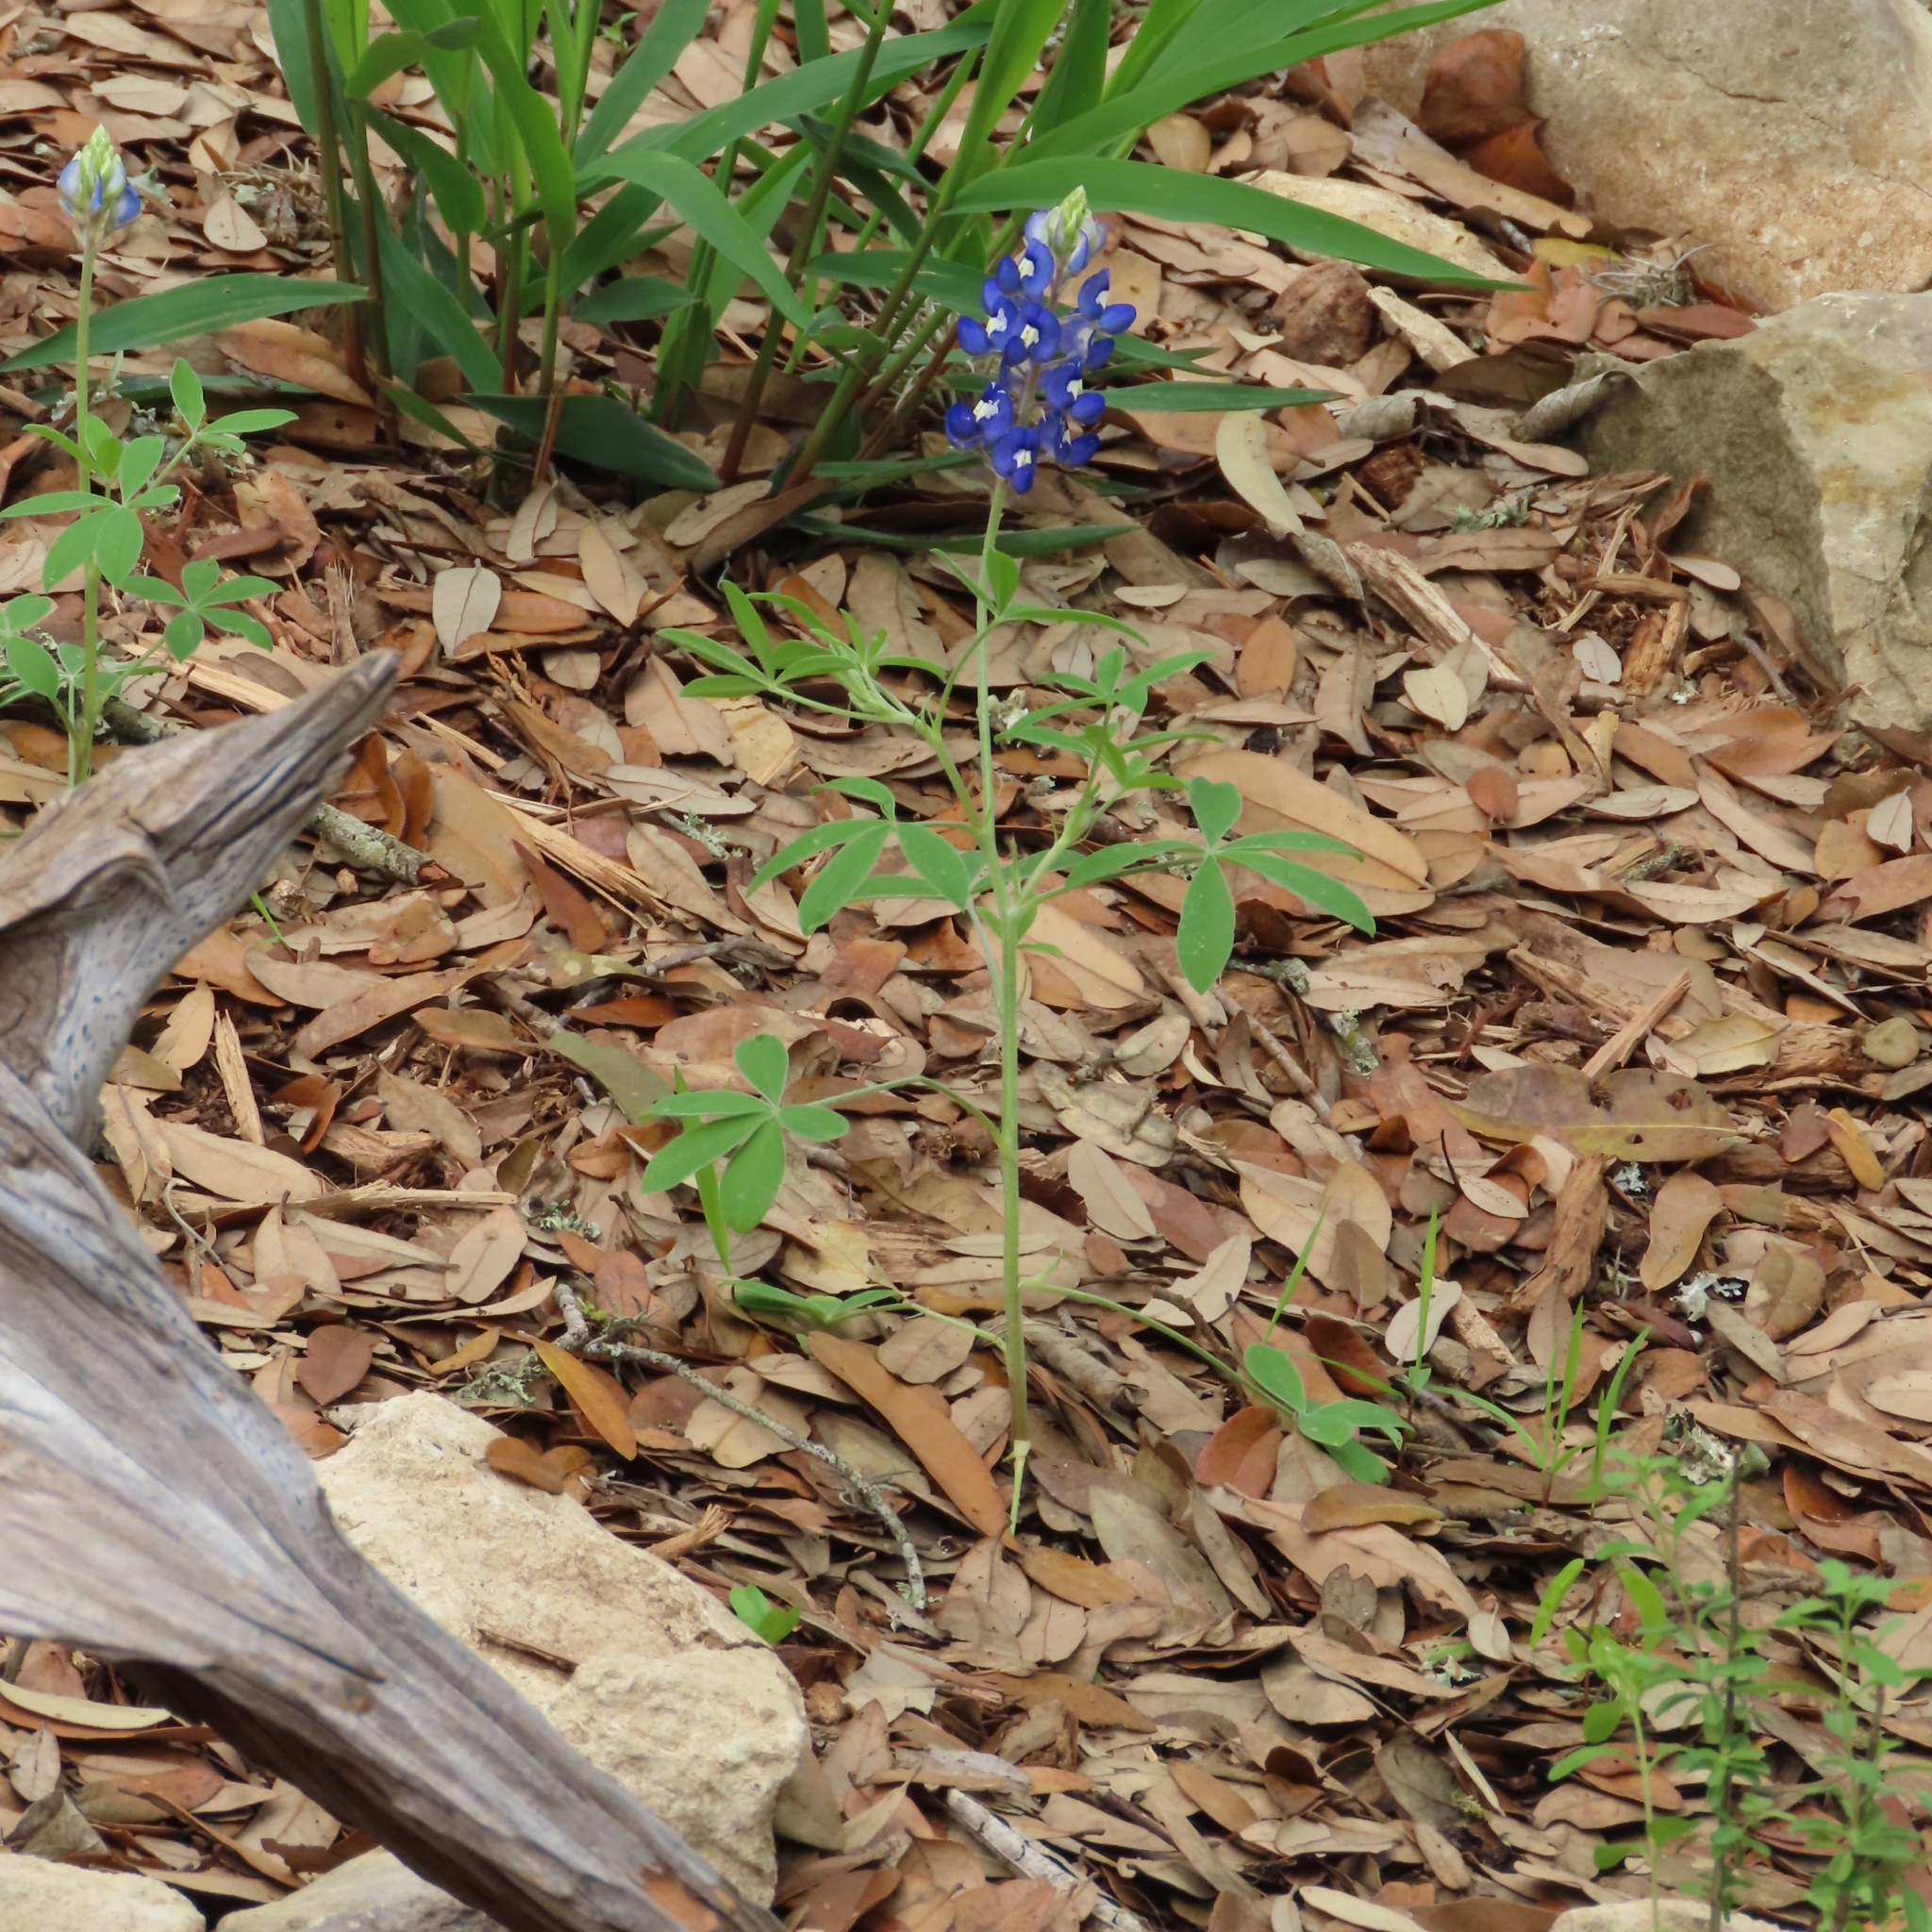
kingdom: Plantae
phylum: Tracheophyta
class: Magnoliopsida
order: Fabales
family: Fabaceae
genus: Lupinus
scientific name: Lupinus texensis
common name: Texas bluebonnet
